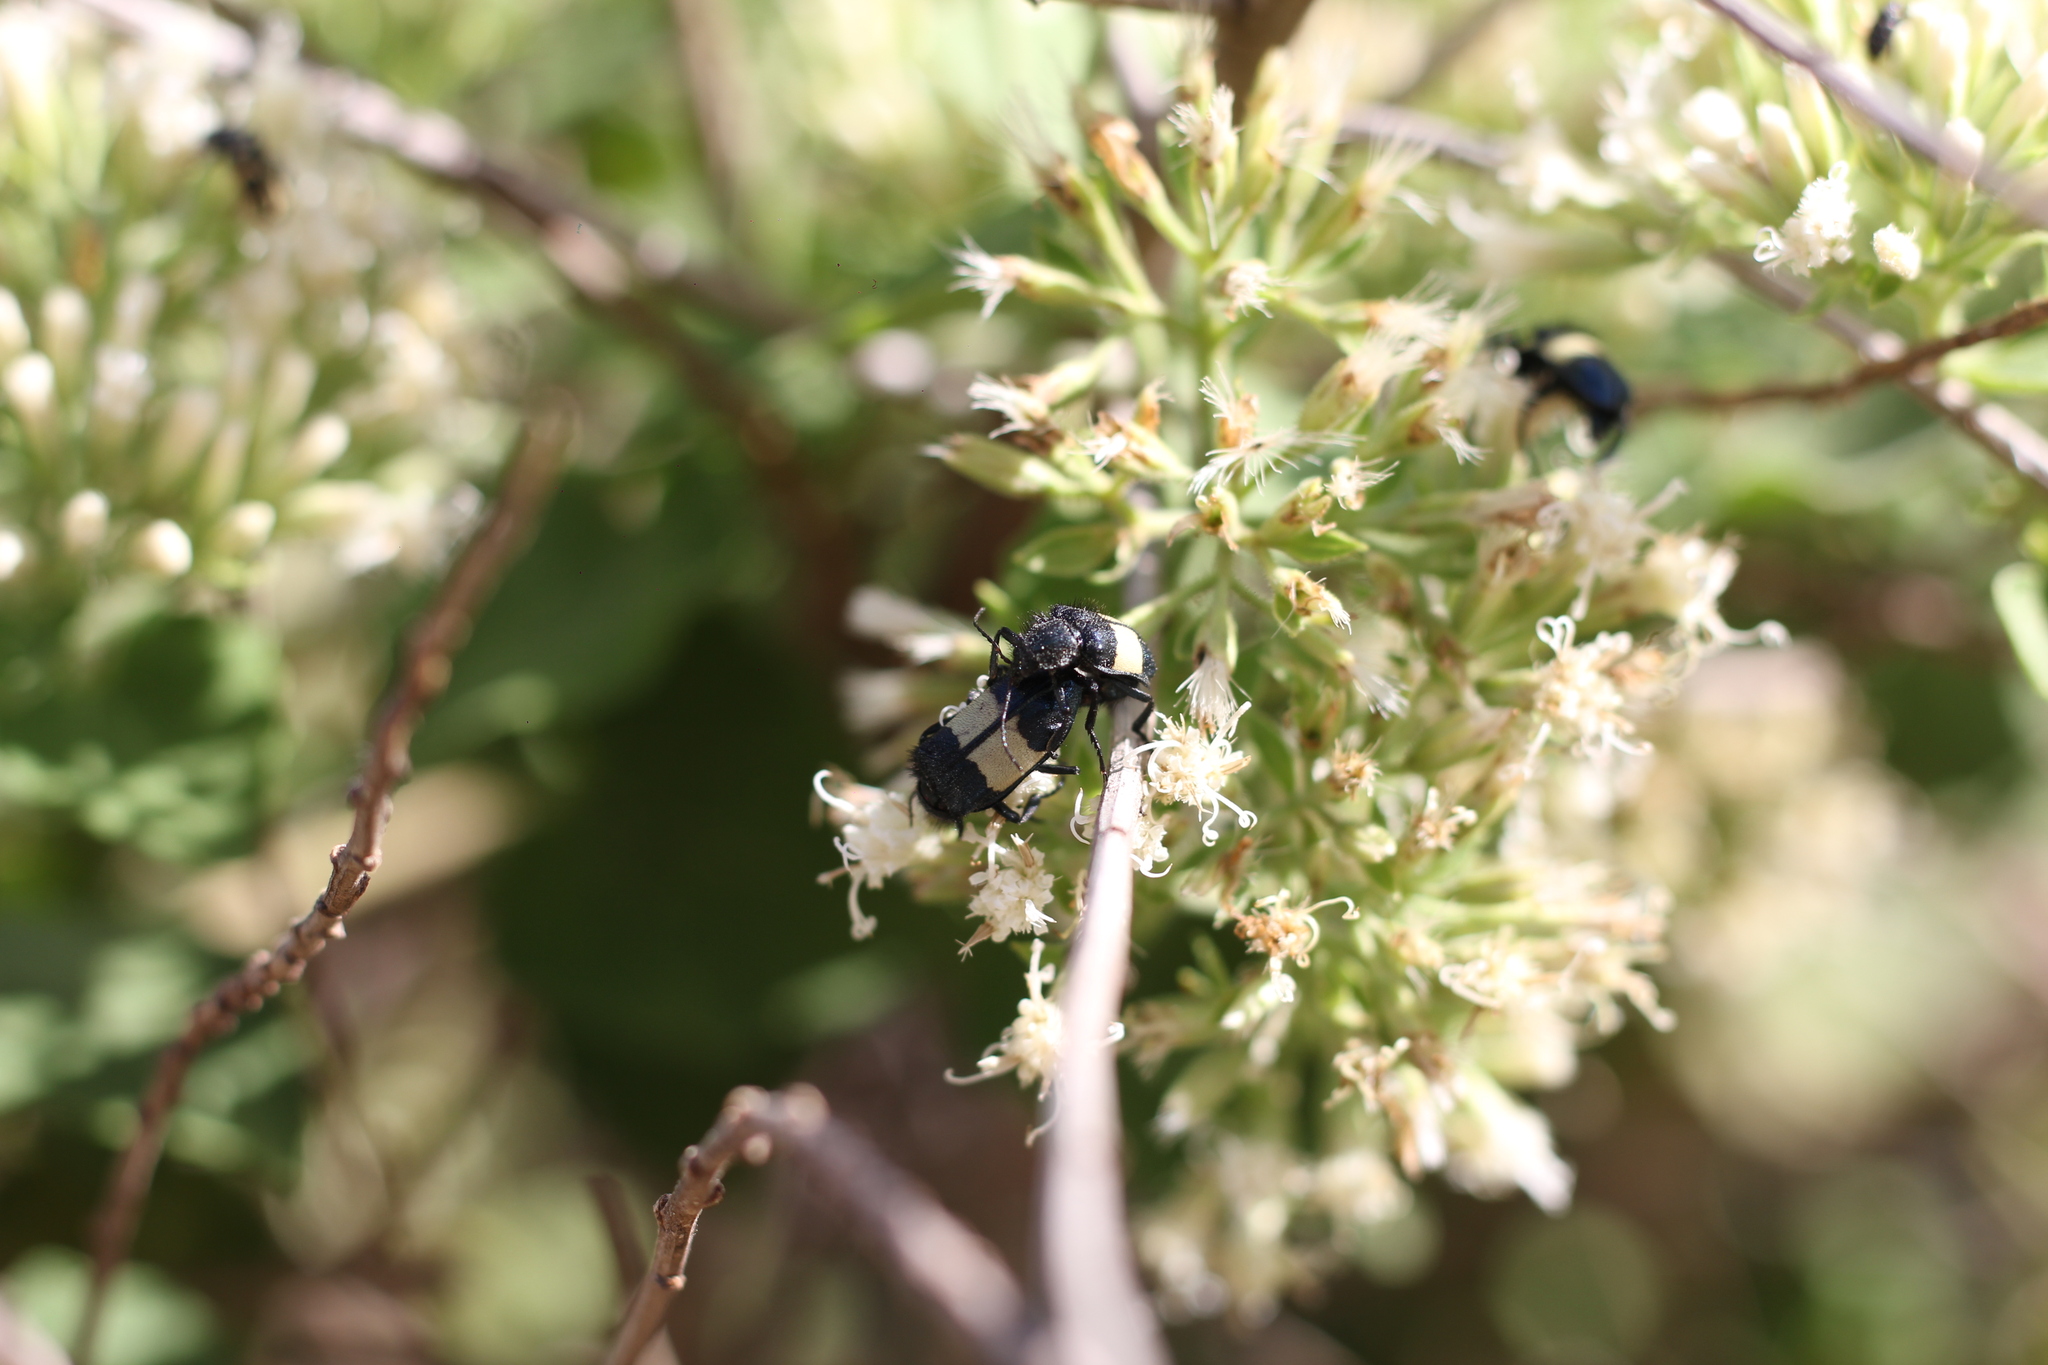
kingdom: Animalia
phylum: Arthropoda
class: Insecta
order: Coleoptera
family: Melyridae
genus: Astylus
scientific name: Astylus
